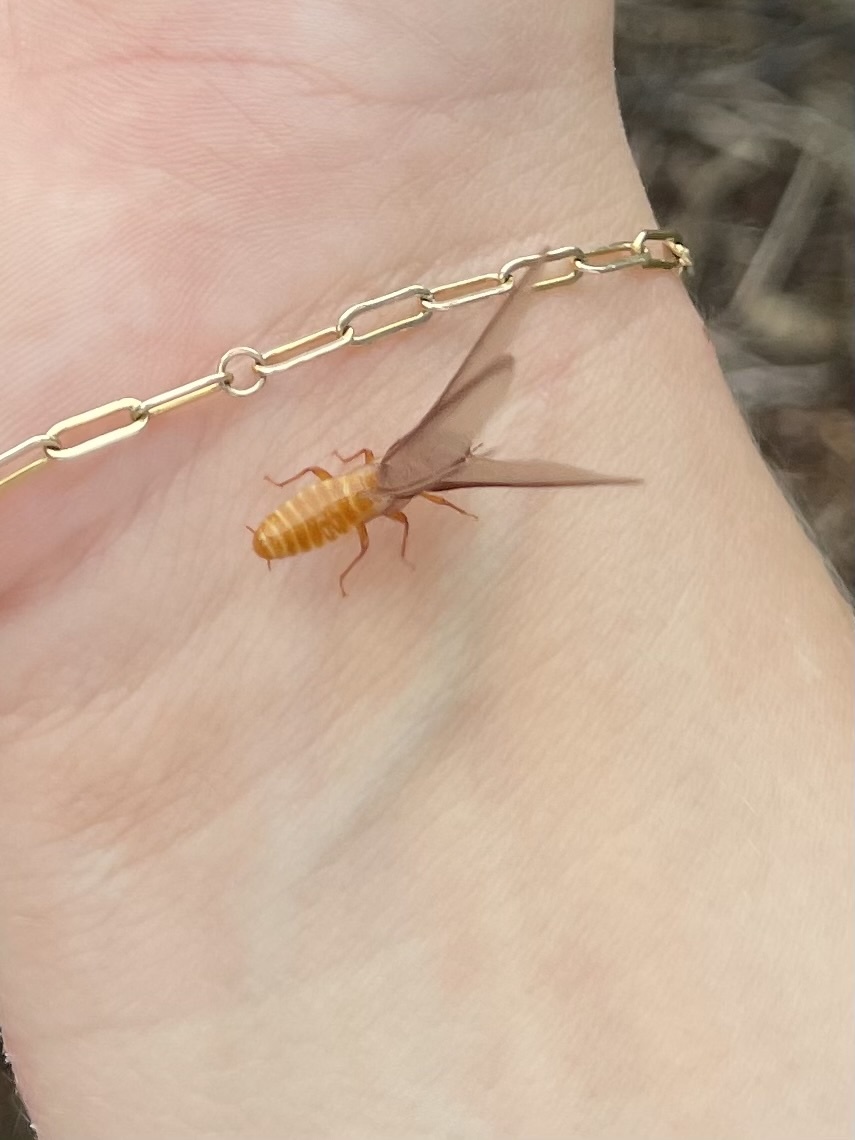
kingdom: Animalia
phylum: Arthropoda
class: Insecta
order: Blattodea
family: Archotermopsidae
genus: Zootermopsis
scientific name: Zootermopsis angusticollis
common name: Rottenwood termite
